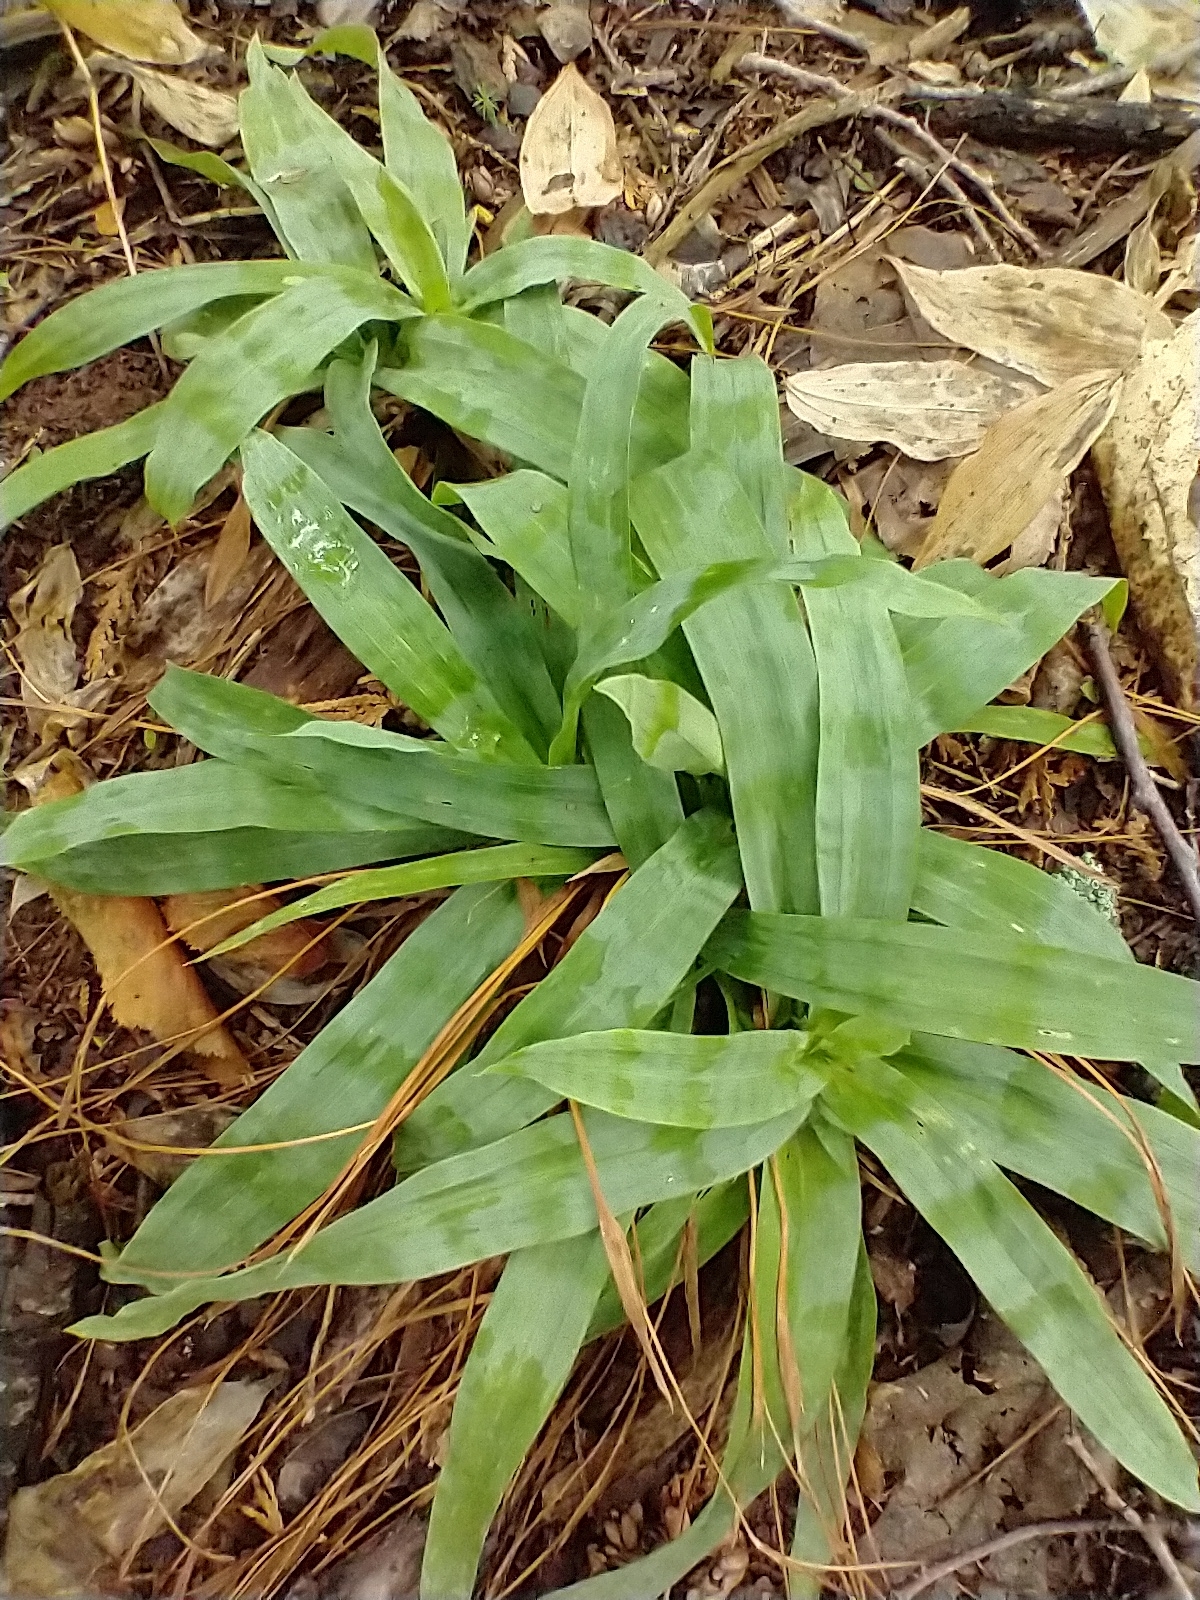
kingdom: Plantae
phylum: Tracheophyta
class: Liliopsida
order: Poales
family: Cyperaceae
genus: Carex
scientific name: Carex platyphylla
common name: Broad-leaved sedge
